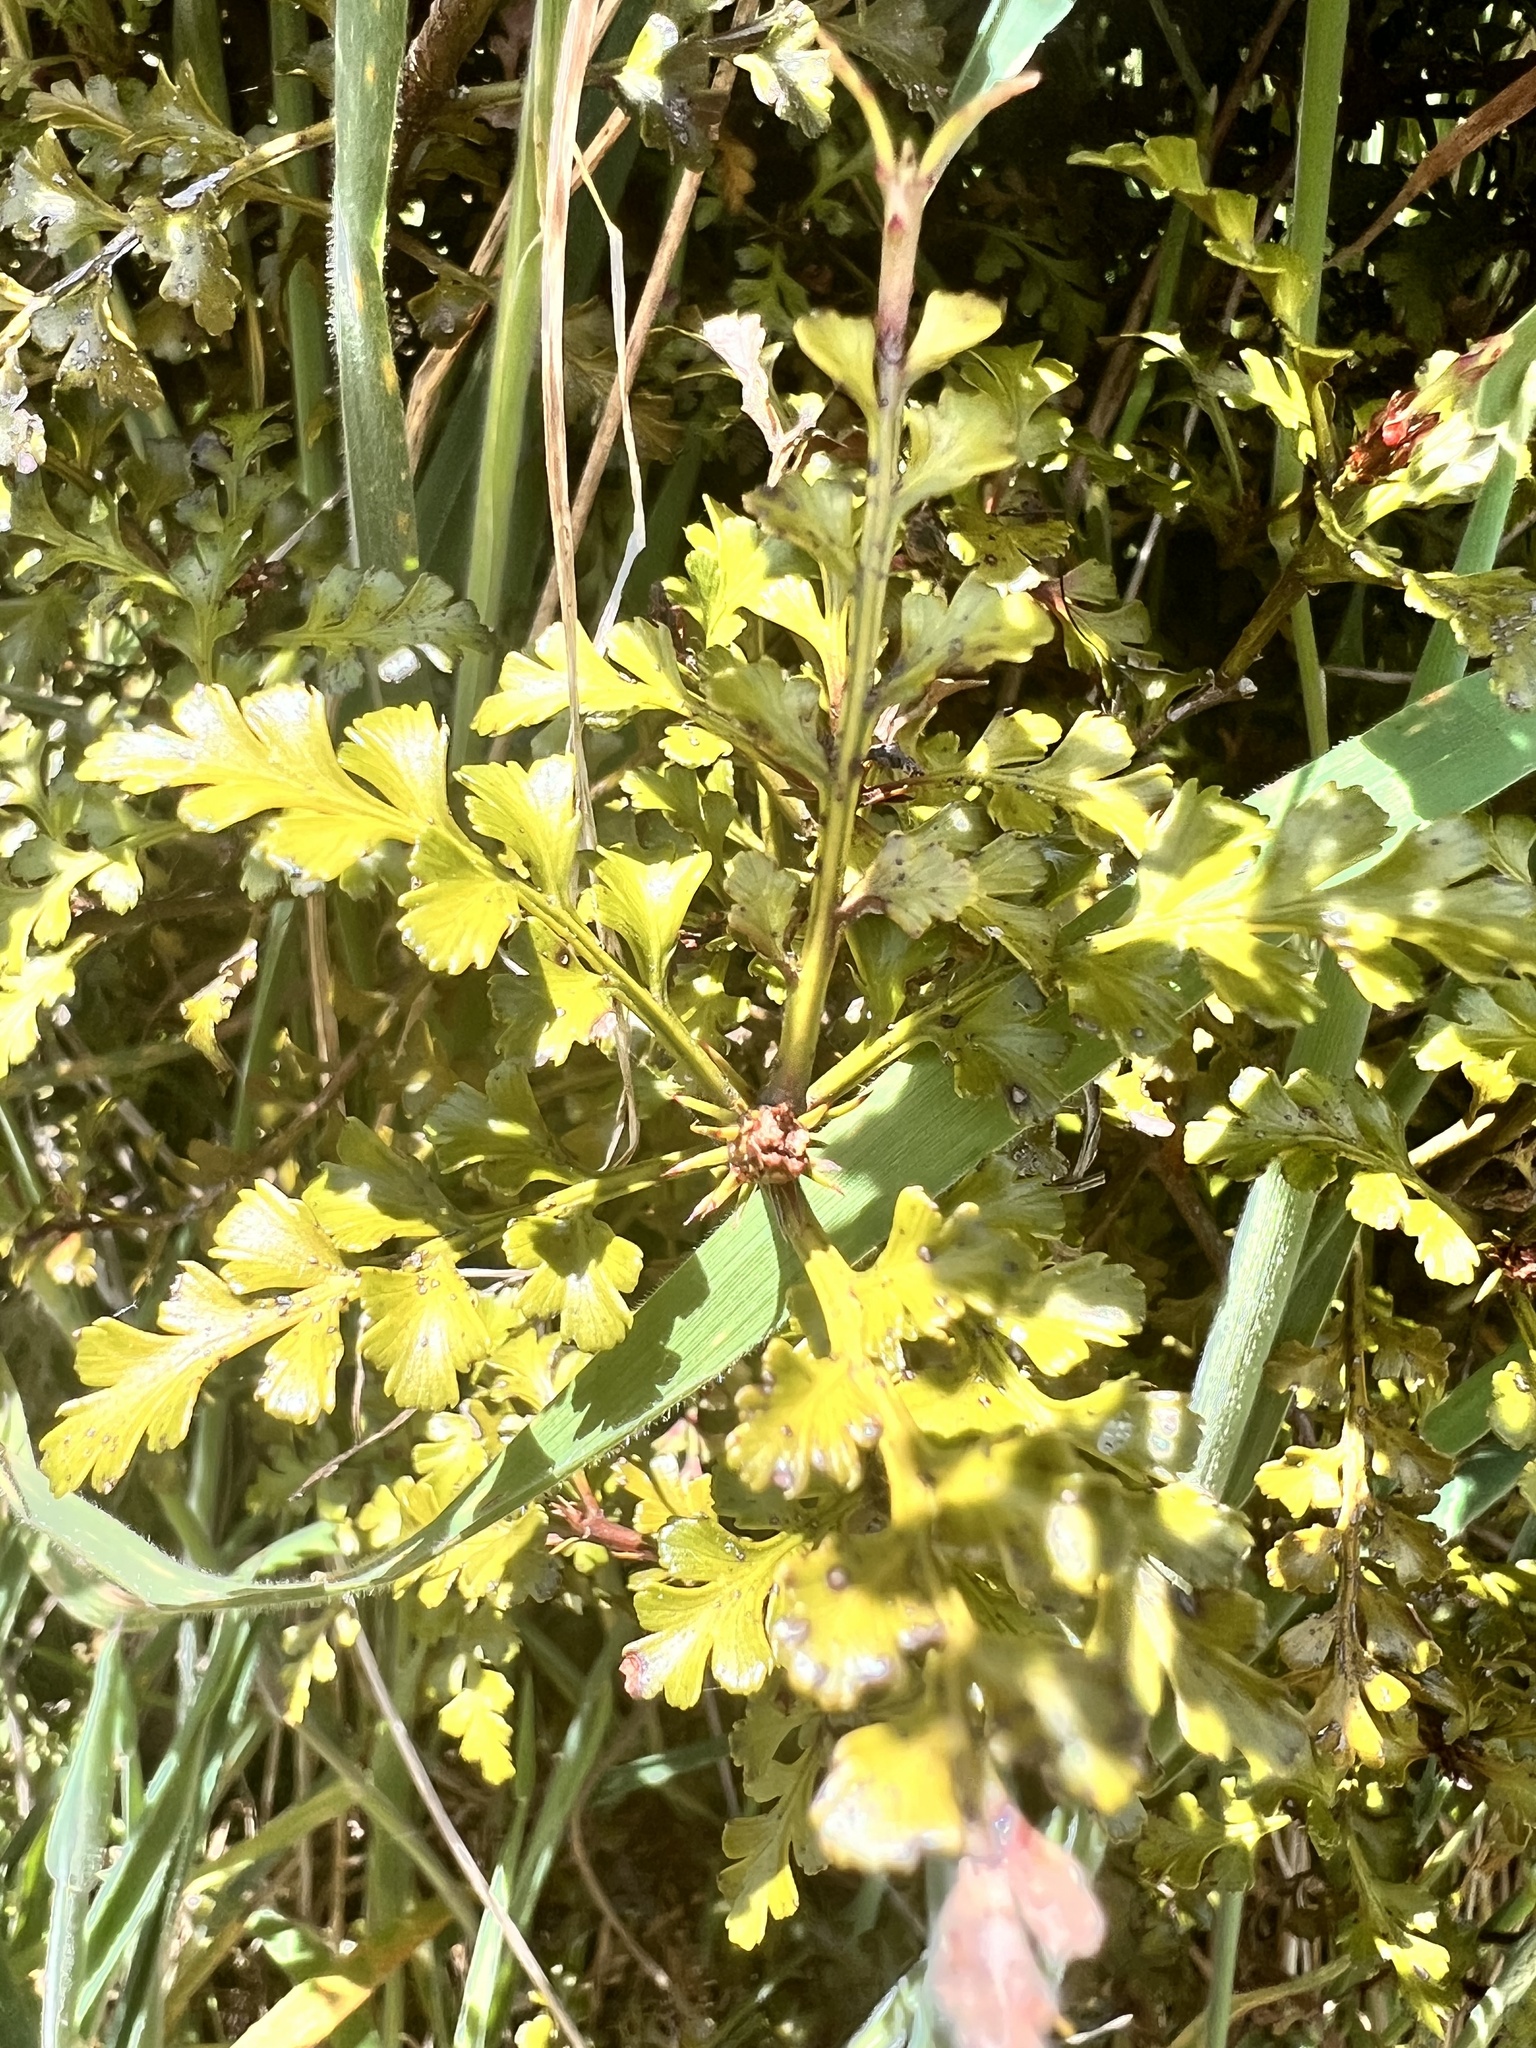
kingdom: Plantae
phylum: Tracheophyta
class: Pinopsida
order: Pinales
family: Phyllocladaceae
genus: Phyllocladus
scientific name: Phyllocladus trichomanoides
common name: Celery pine
